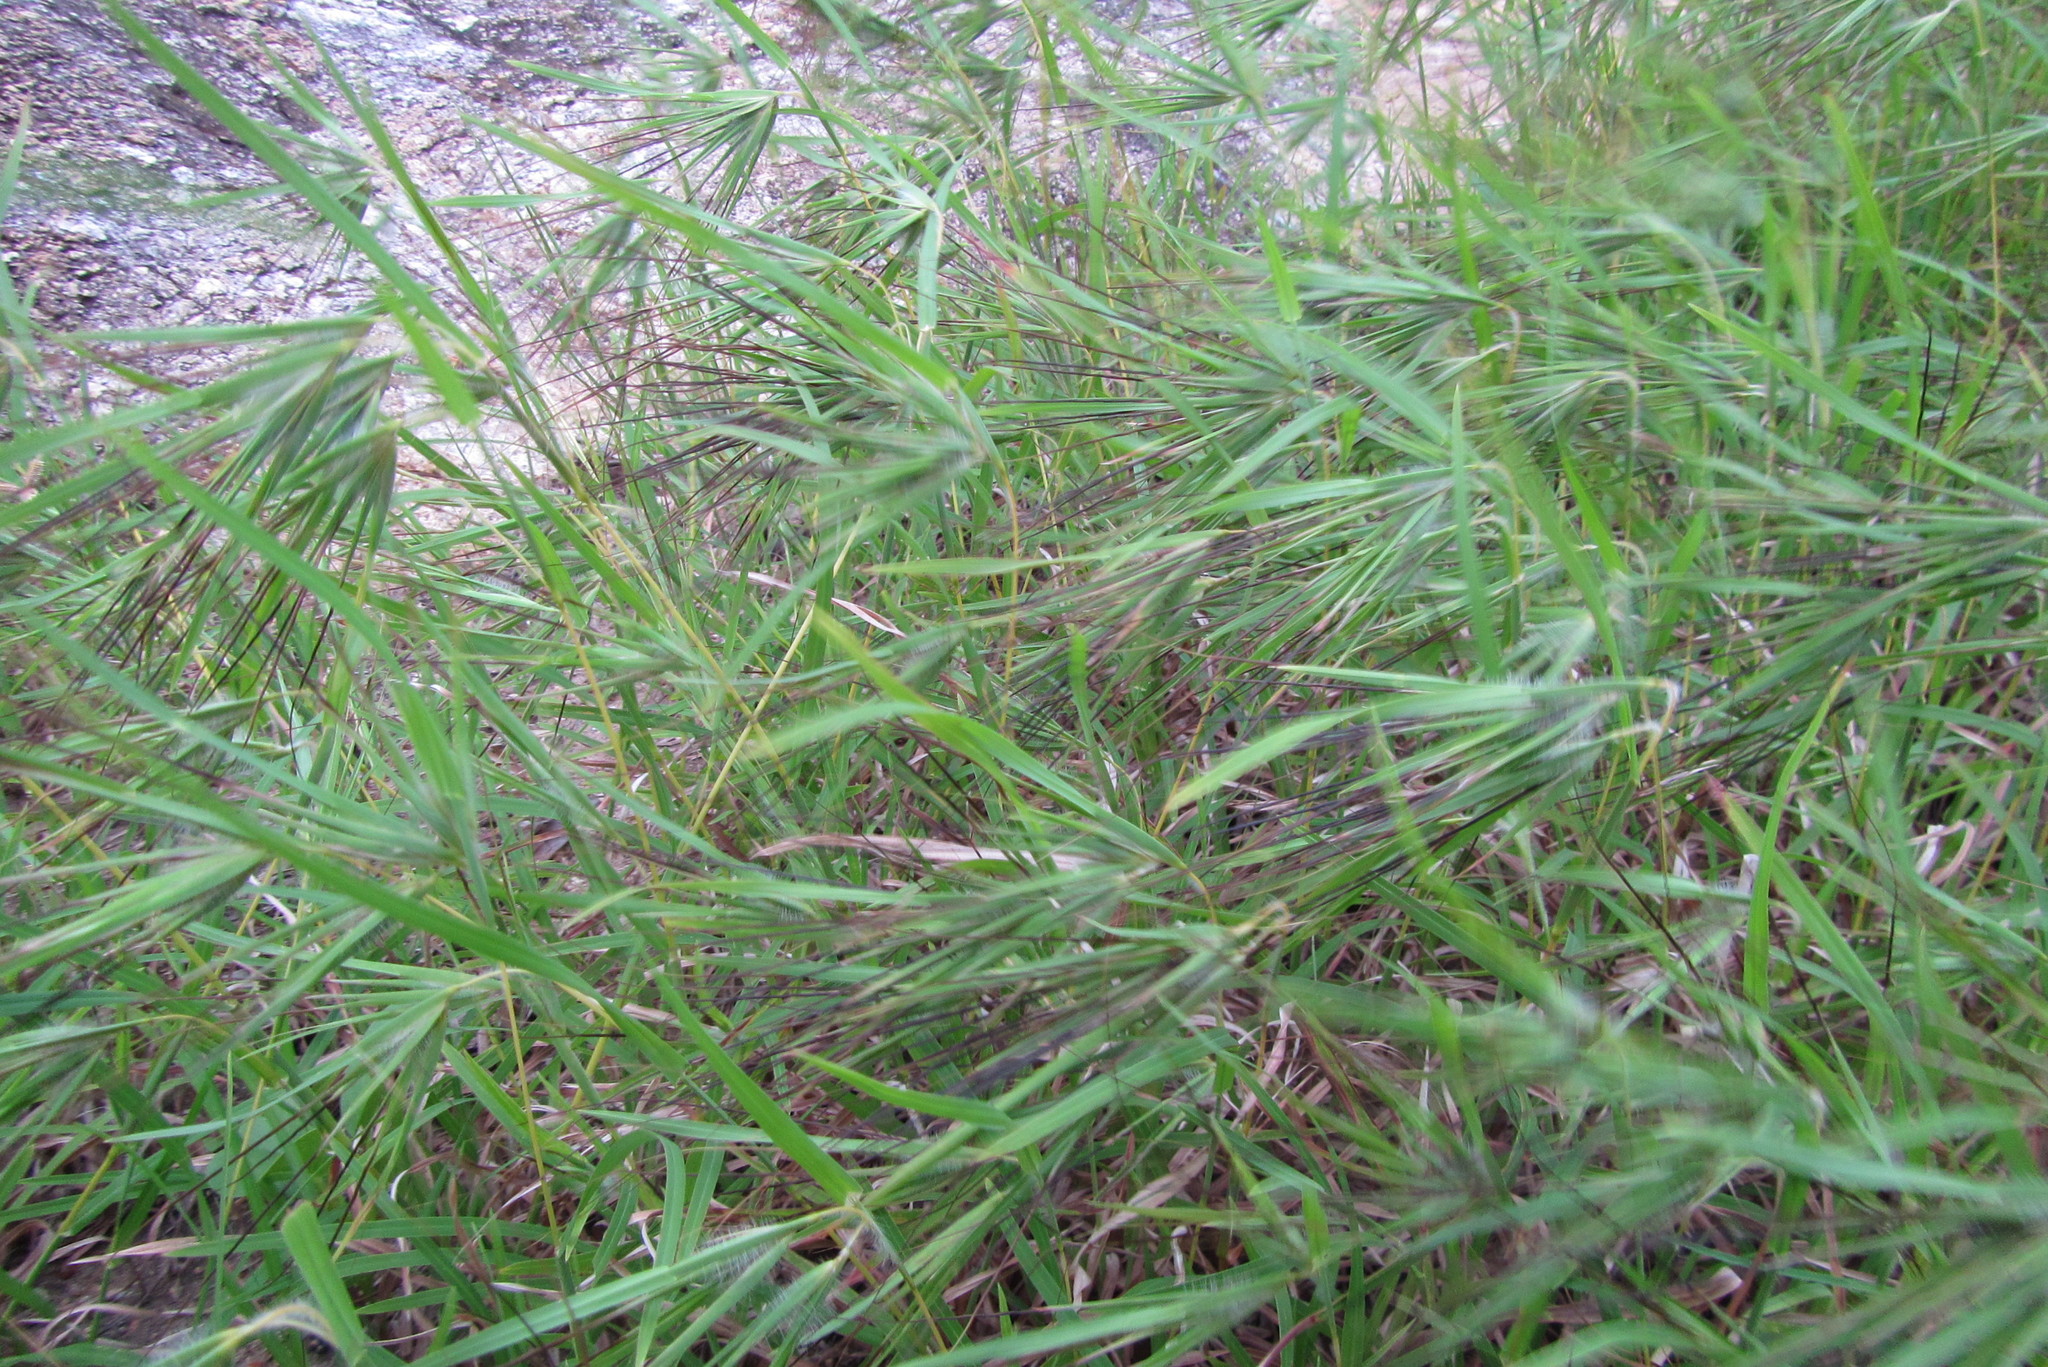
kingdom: Plantae
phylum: Tracheophyta
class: Liliopsida
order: Poales
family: Poaceae
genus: Themeda
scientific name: Themeda arguens
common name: Christmas grass
